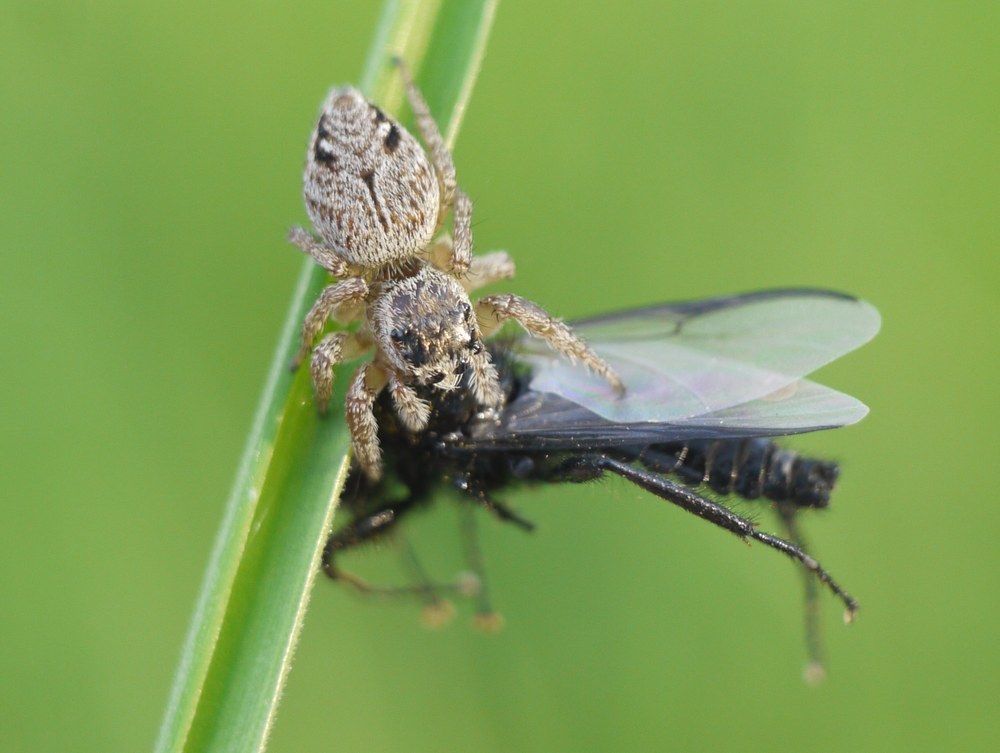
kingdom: Animalia
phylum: Arthropoda
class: Arachnida
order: Araneae
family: Salticidae
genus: Evarcha
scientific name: Evarcha arcuata
